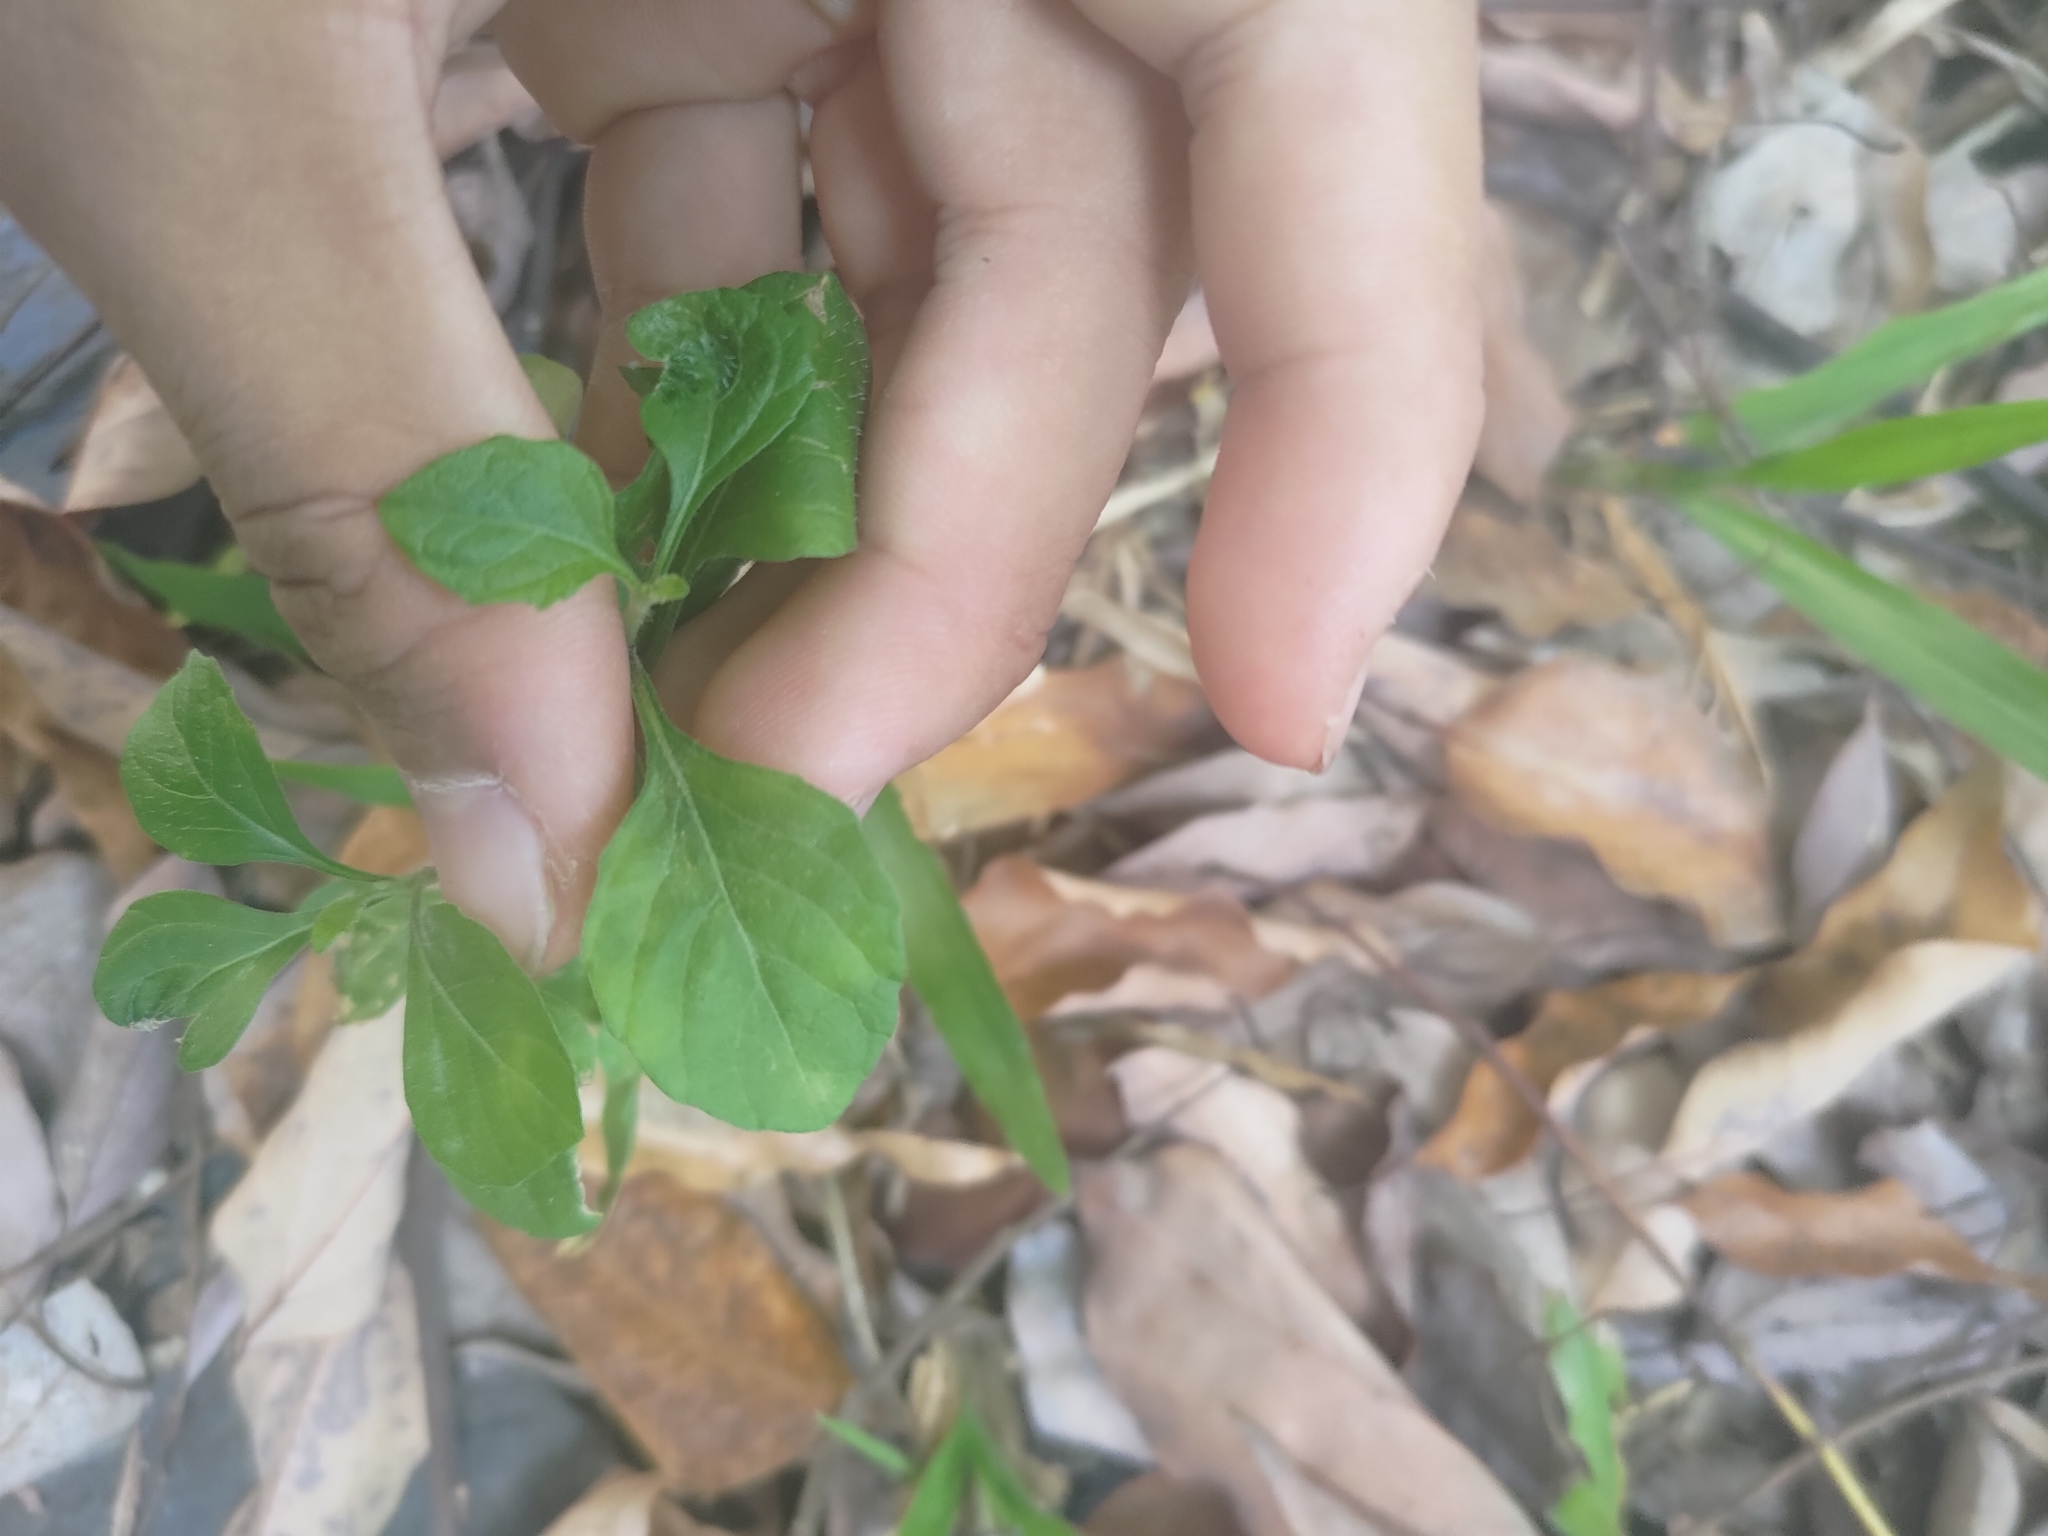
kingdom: Plantae
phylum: Tracheophyta
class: Magnoliopsida
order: Asterales
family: Asteraceae
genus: Cyanthillium
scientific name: Cyanthillium cinereum
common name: Little ironweed
